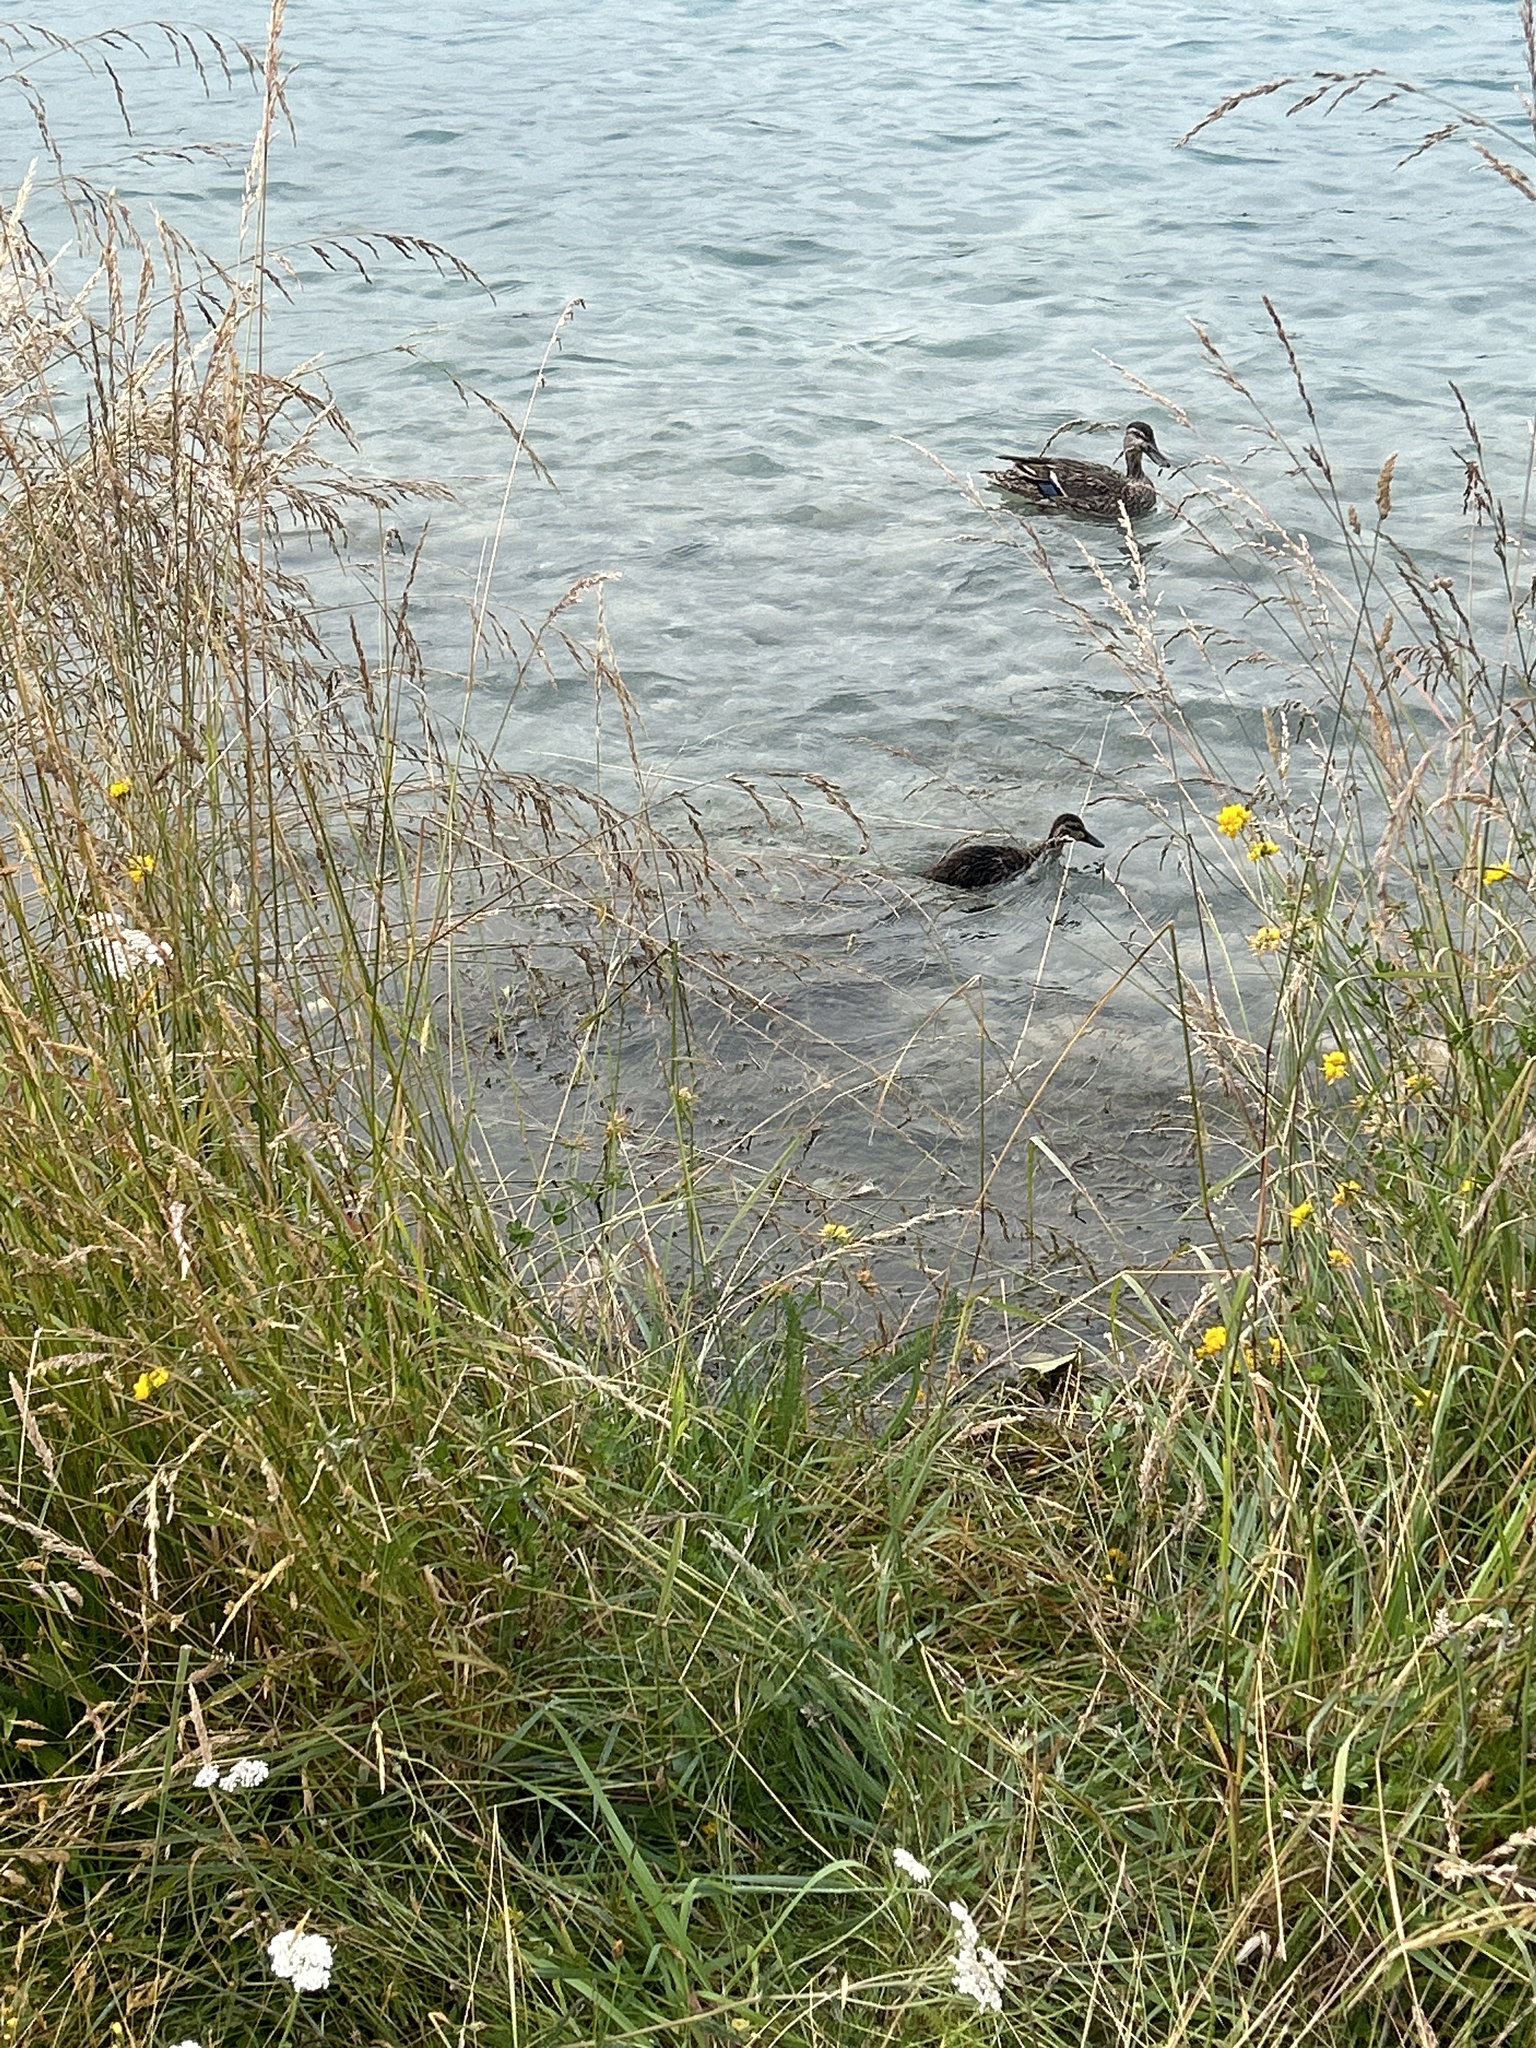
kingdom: Animalia
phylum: Chordata
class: Aves
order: Anseriformes
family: Anatidae
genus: Anas
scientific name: Anas
